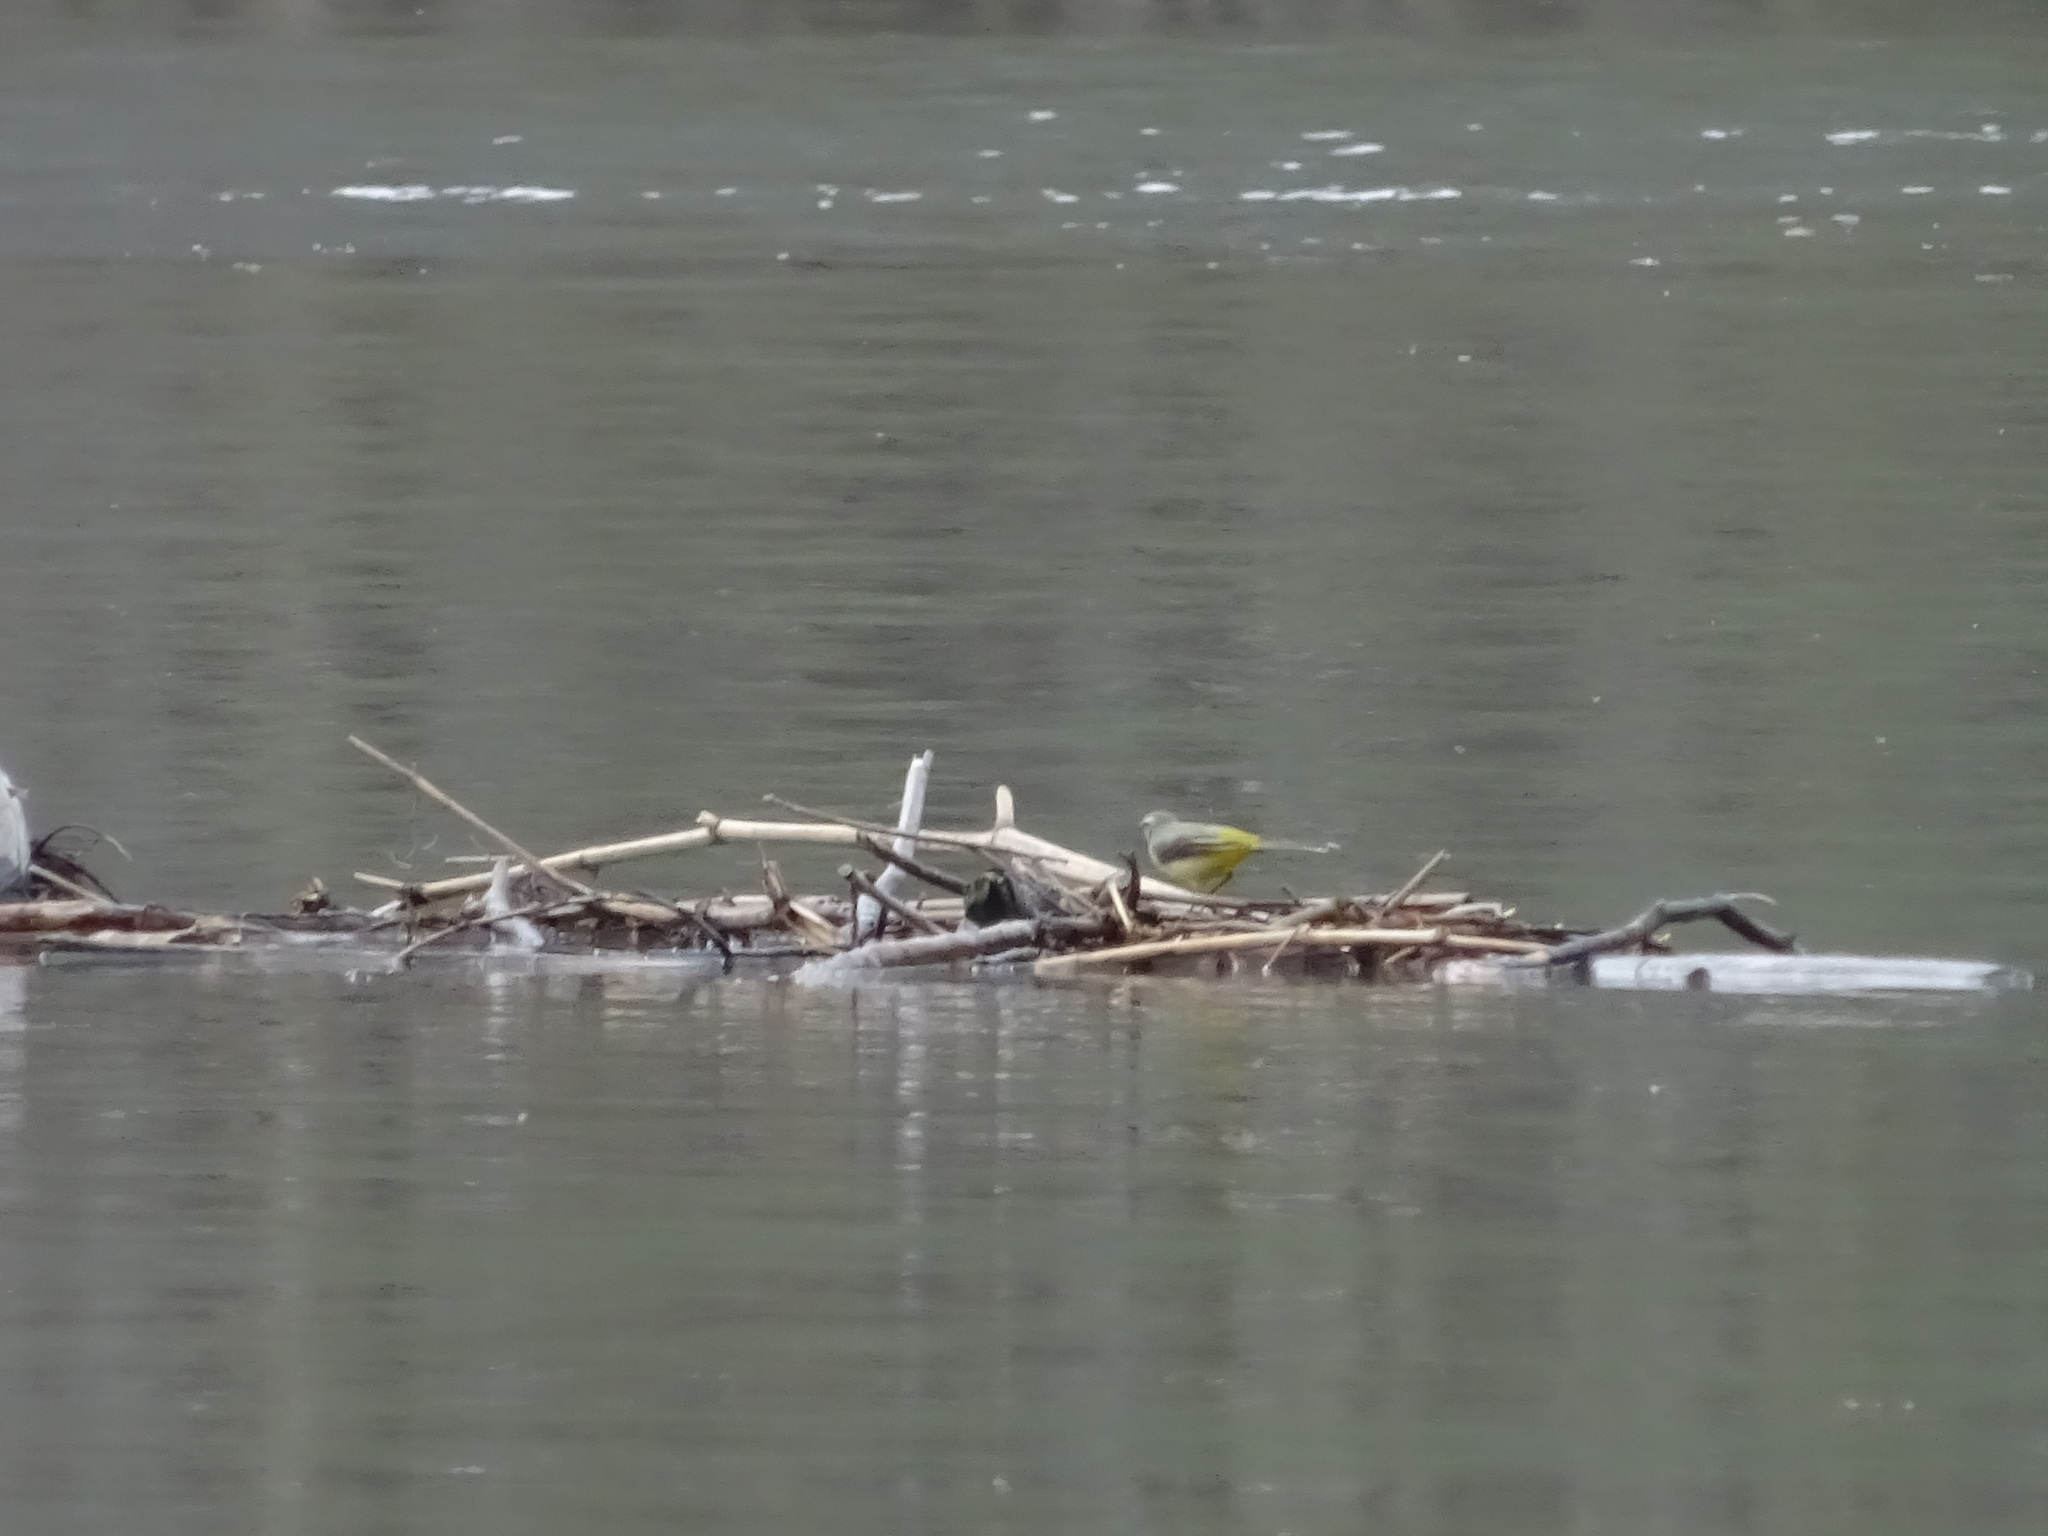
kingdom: Animalia
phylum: Chordata
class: Aves
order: Passeriformes
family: Motacillidae
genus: Motacilla
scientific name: Motacilla cinerea
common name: Grey wagtail
